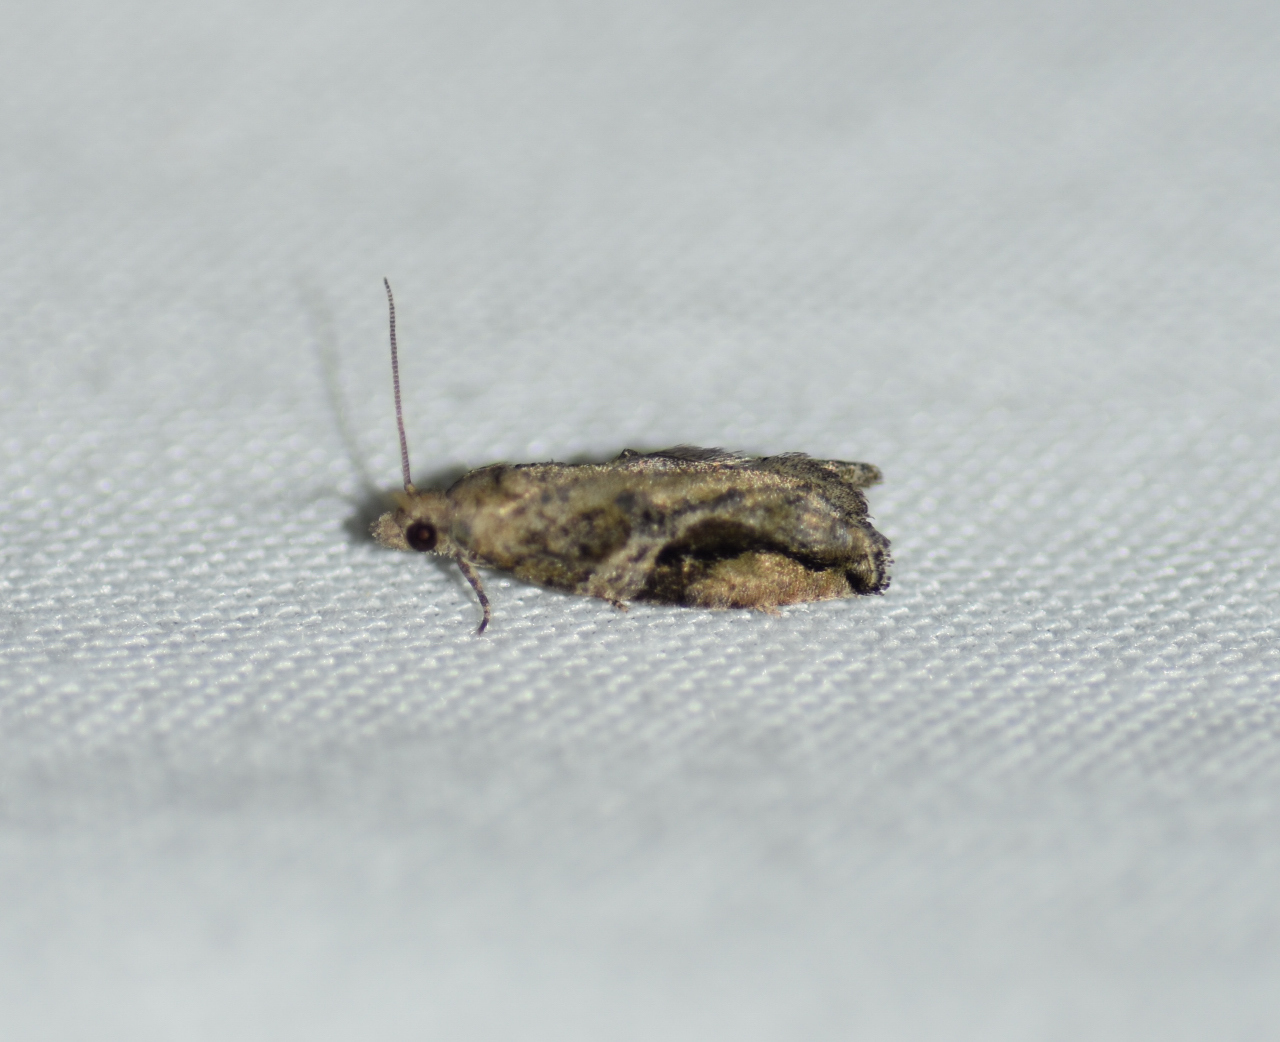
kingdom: Animalia
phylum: Arthropoda
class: Insecta
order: Lepidoptera
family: Tortricidae
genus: Proteoteras
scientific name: Proteoteras crescentana
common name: Black-crescent proteoteras moth
